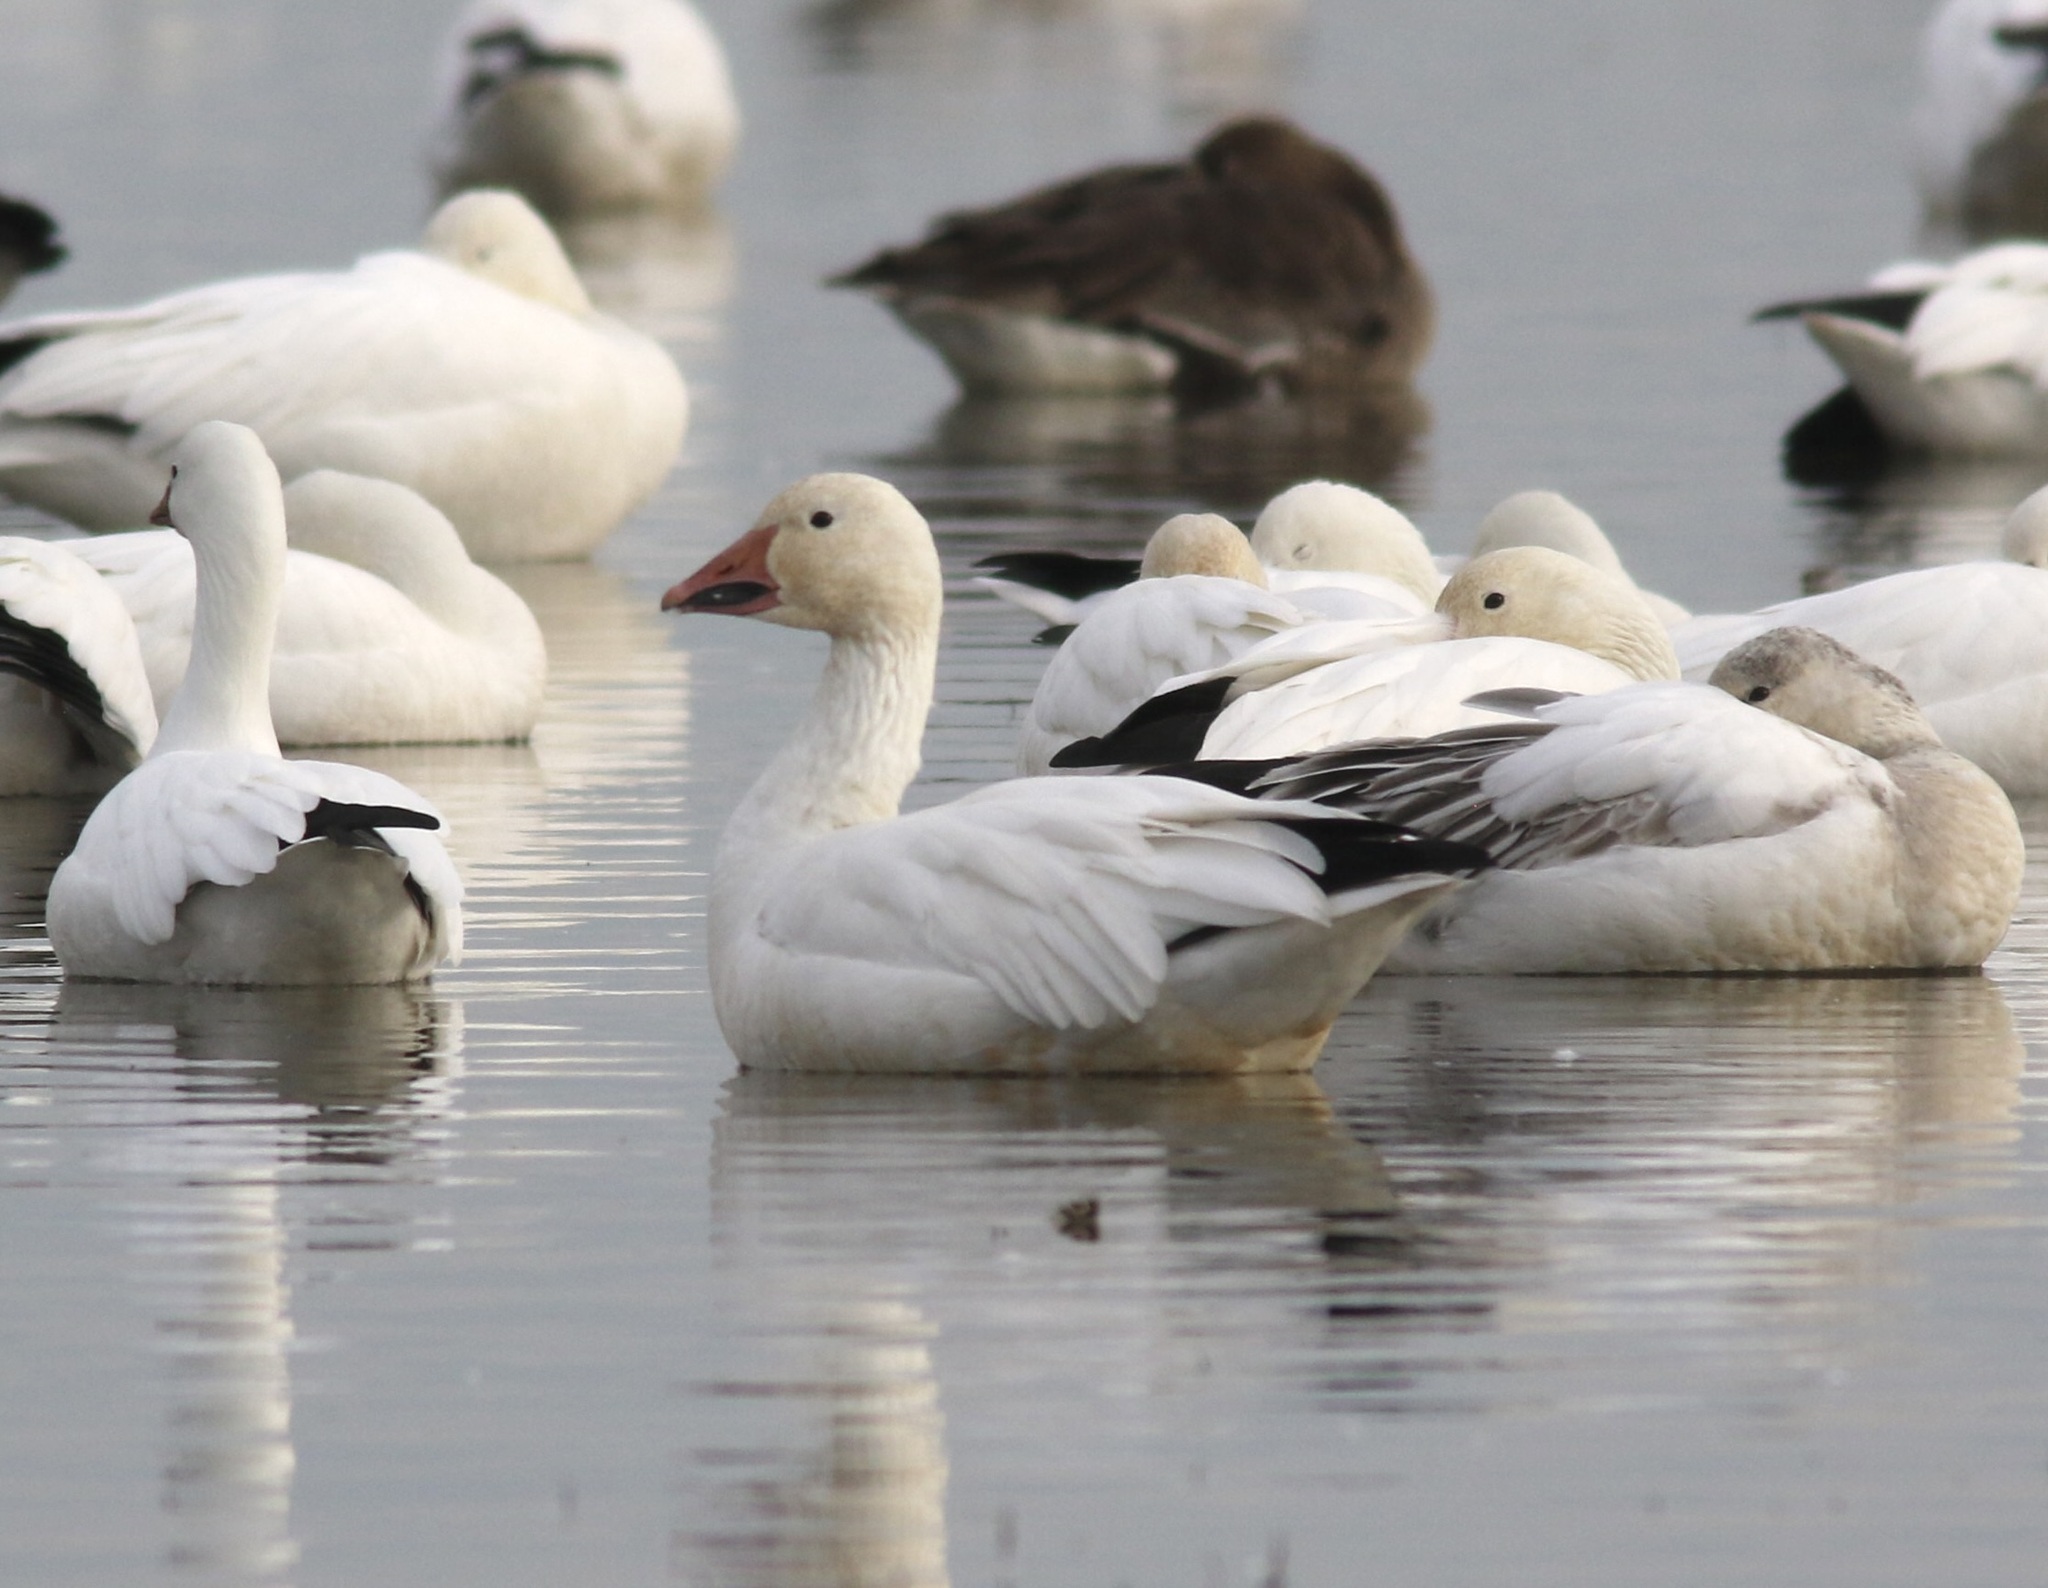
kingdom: Animalia
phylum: Chordata
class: Aves
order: Anseriformes
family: Anatidae
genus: Anser
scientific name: Anser caerulescens
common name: Snow goose
